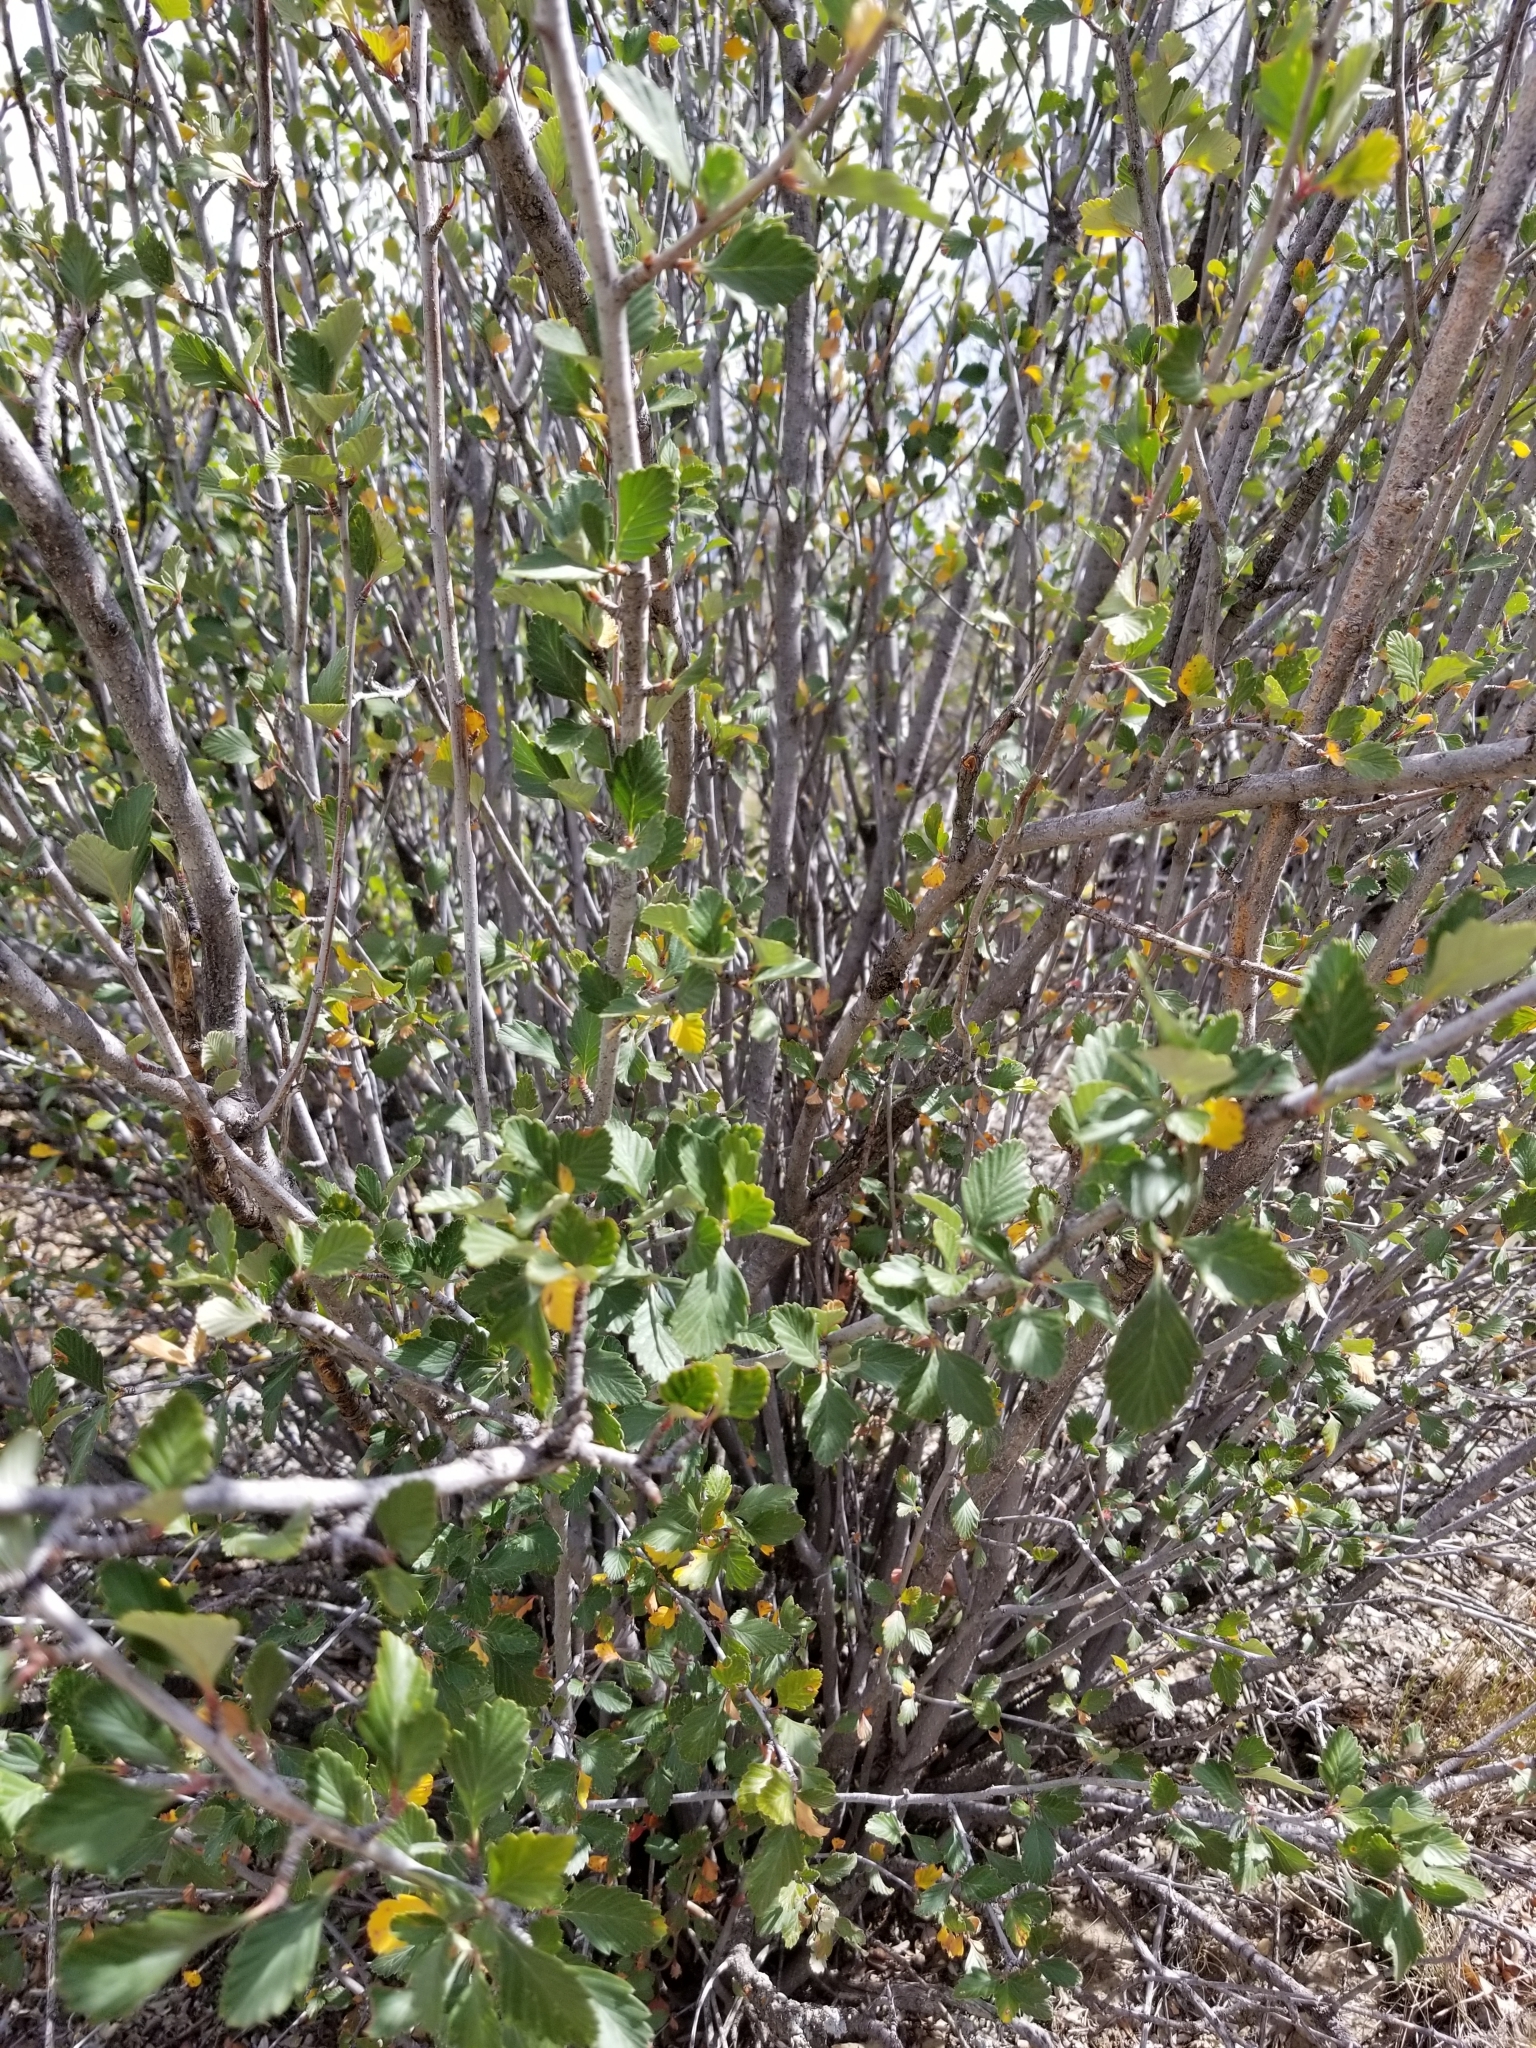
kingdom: Plantae
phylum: Tracheophyta
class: Magnoliopsida
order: Rosales
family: Rosaceae
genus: Cercocarpus
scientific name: Cercocarpus montanus
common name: Alder-leaf cercocarpus
